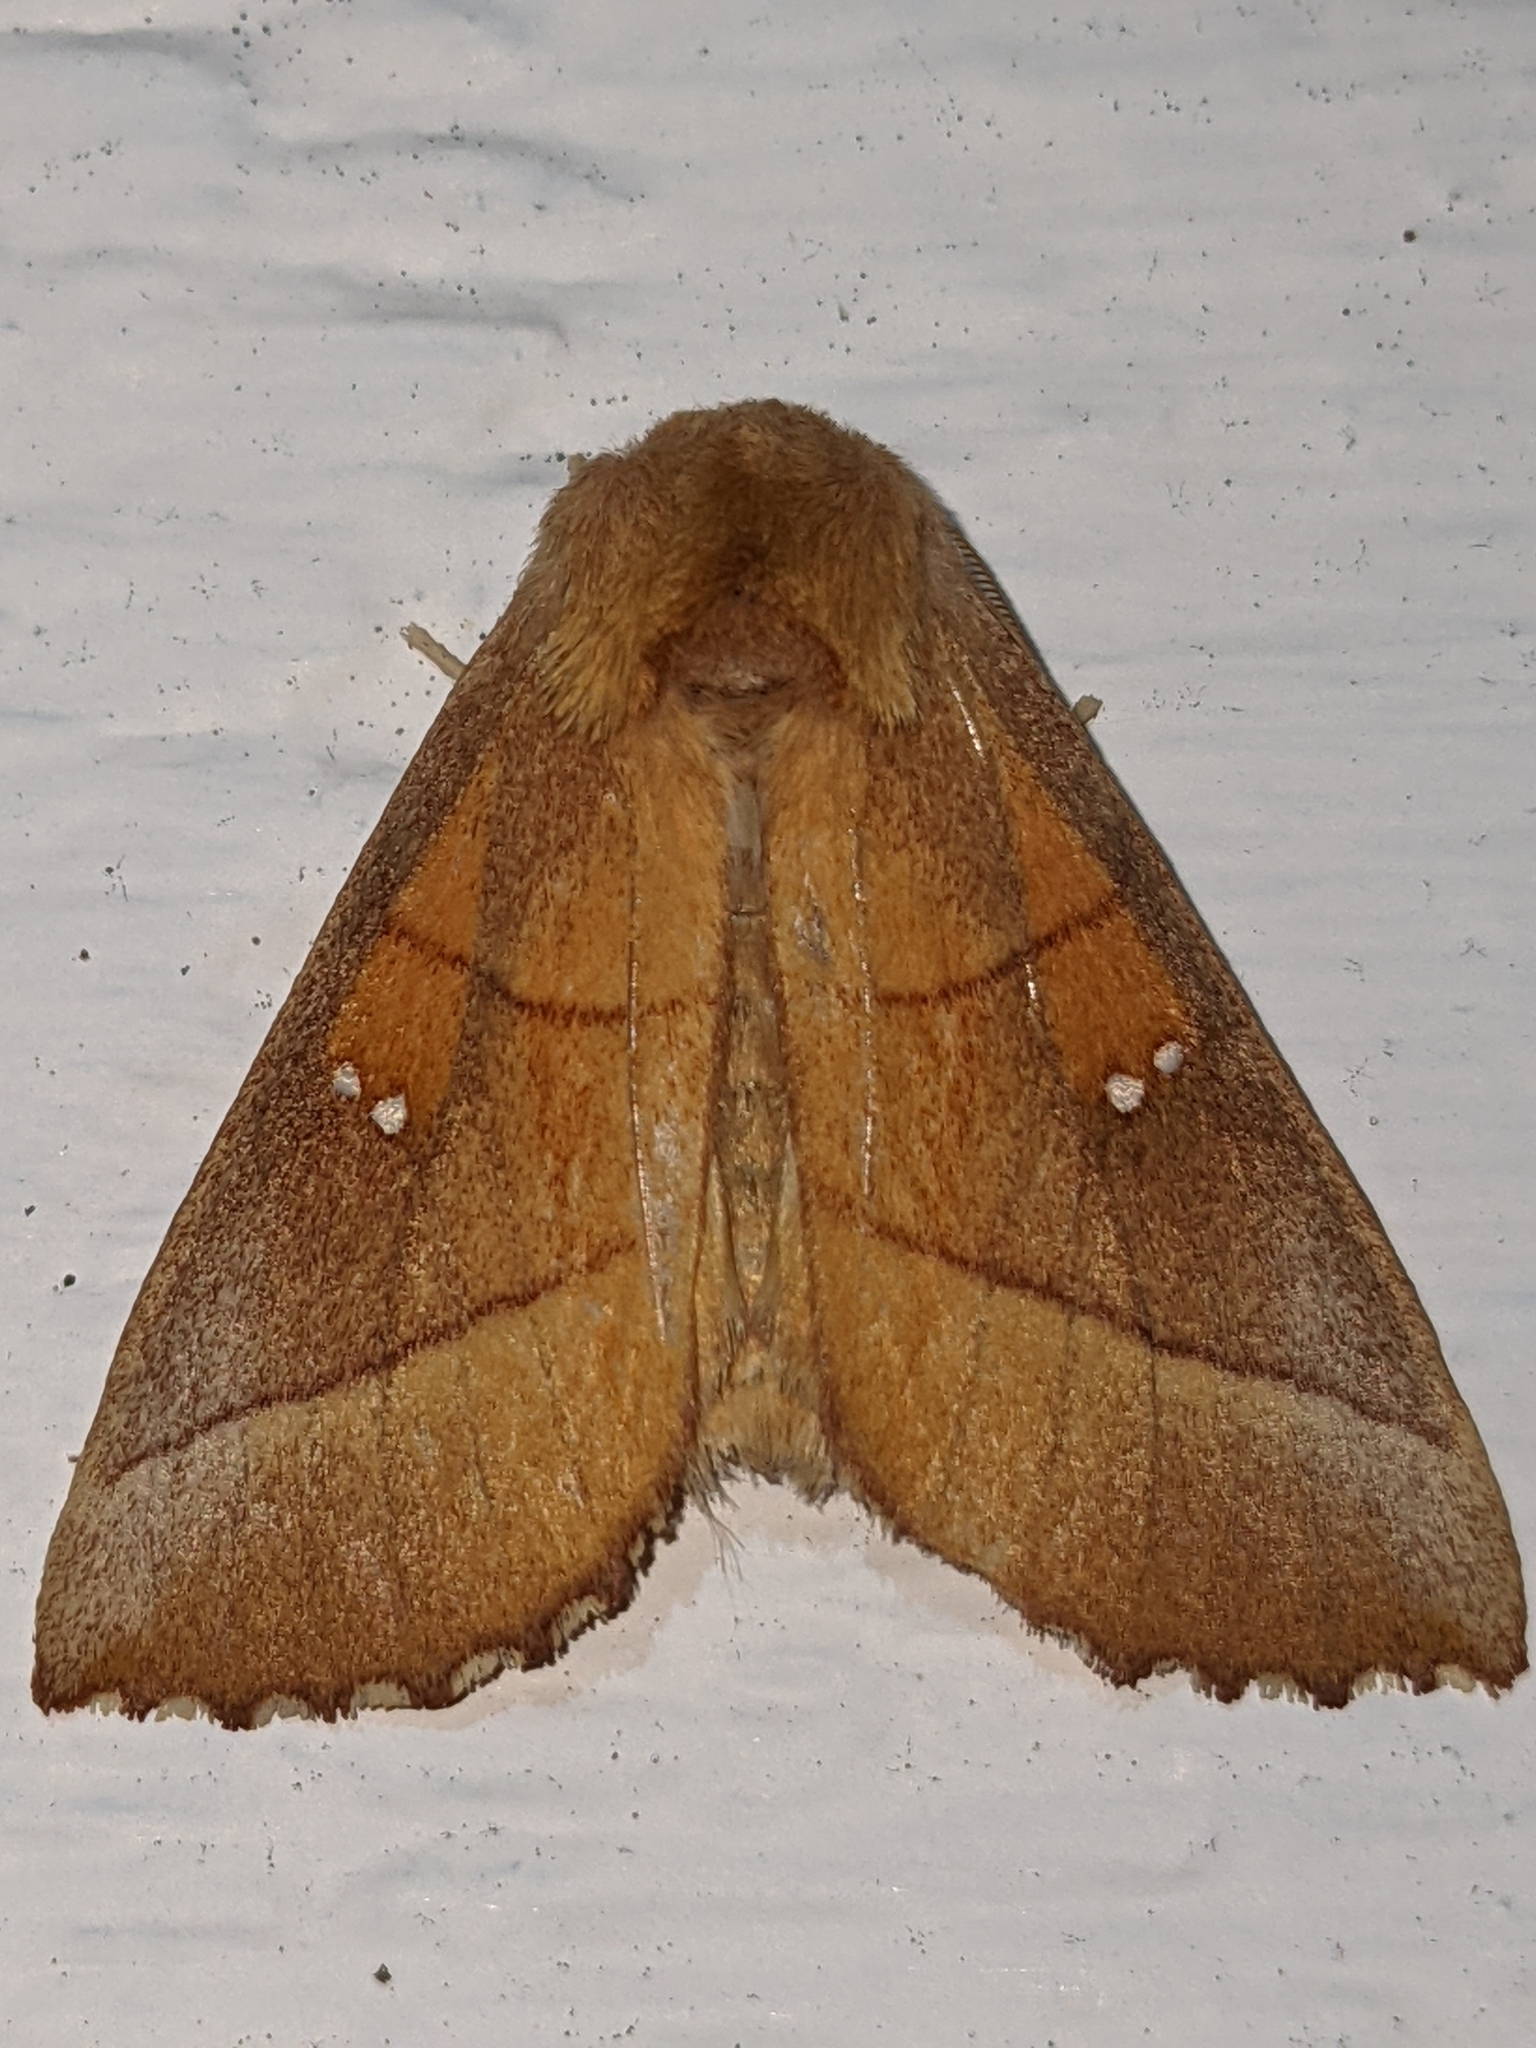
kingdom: Animalia
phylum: Arthropoda
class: Insecta
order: Lepidoptera
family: Notodontidae
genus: Nadata
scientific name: Nadata gibbosa
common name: White-dotted prominent
